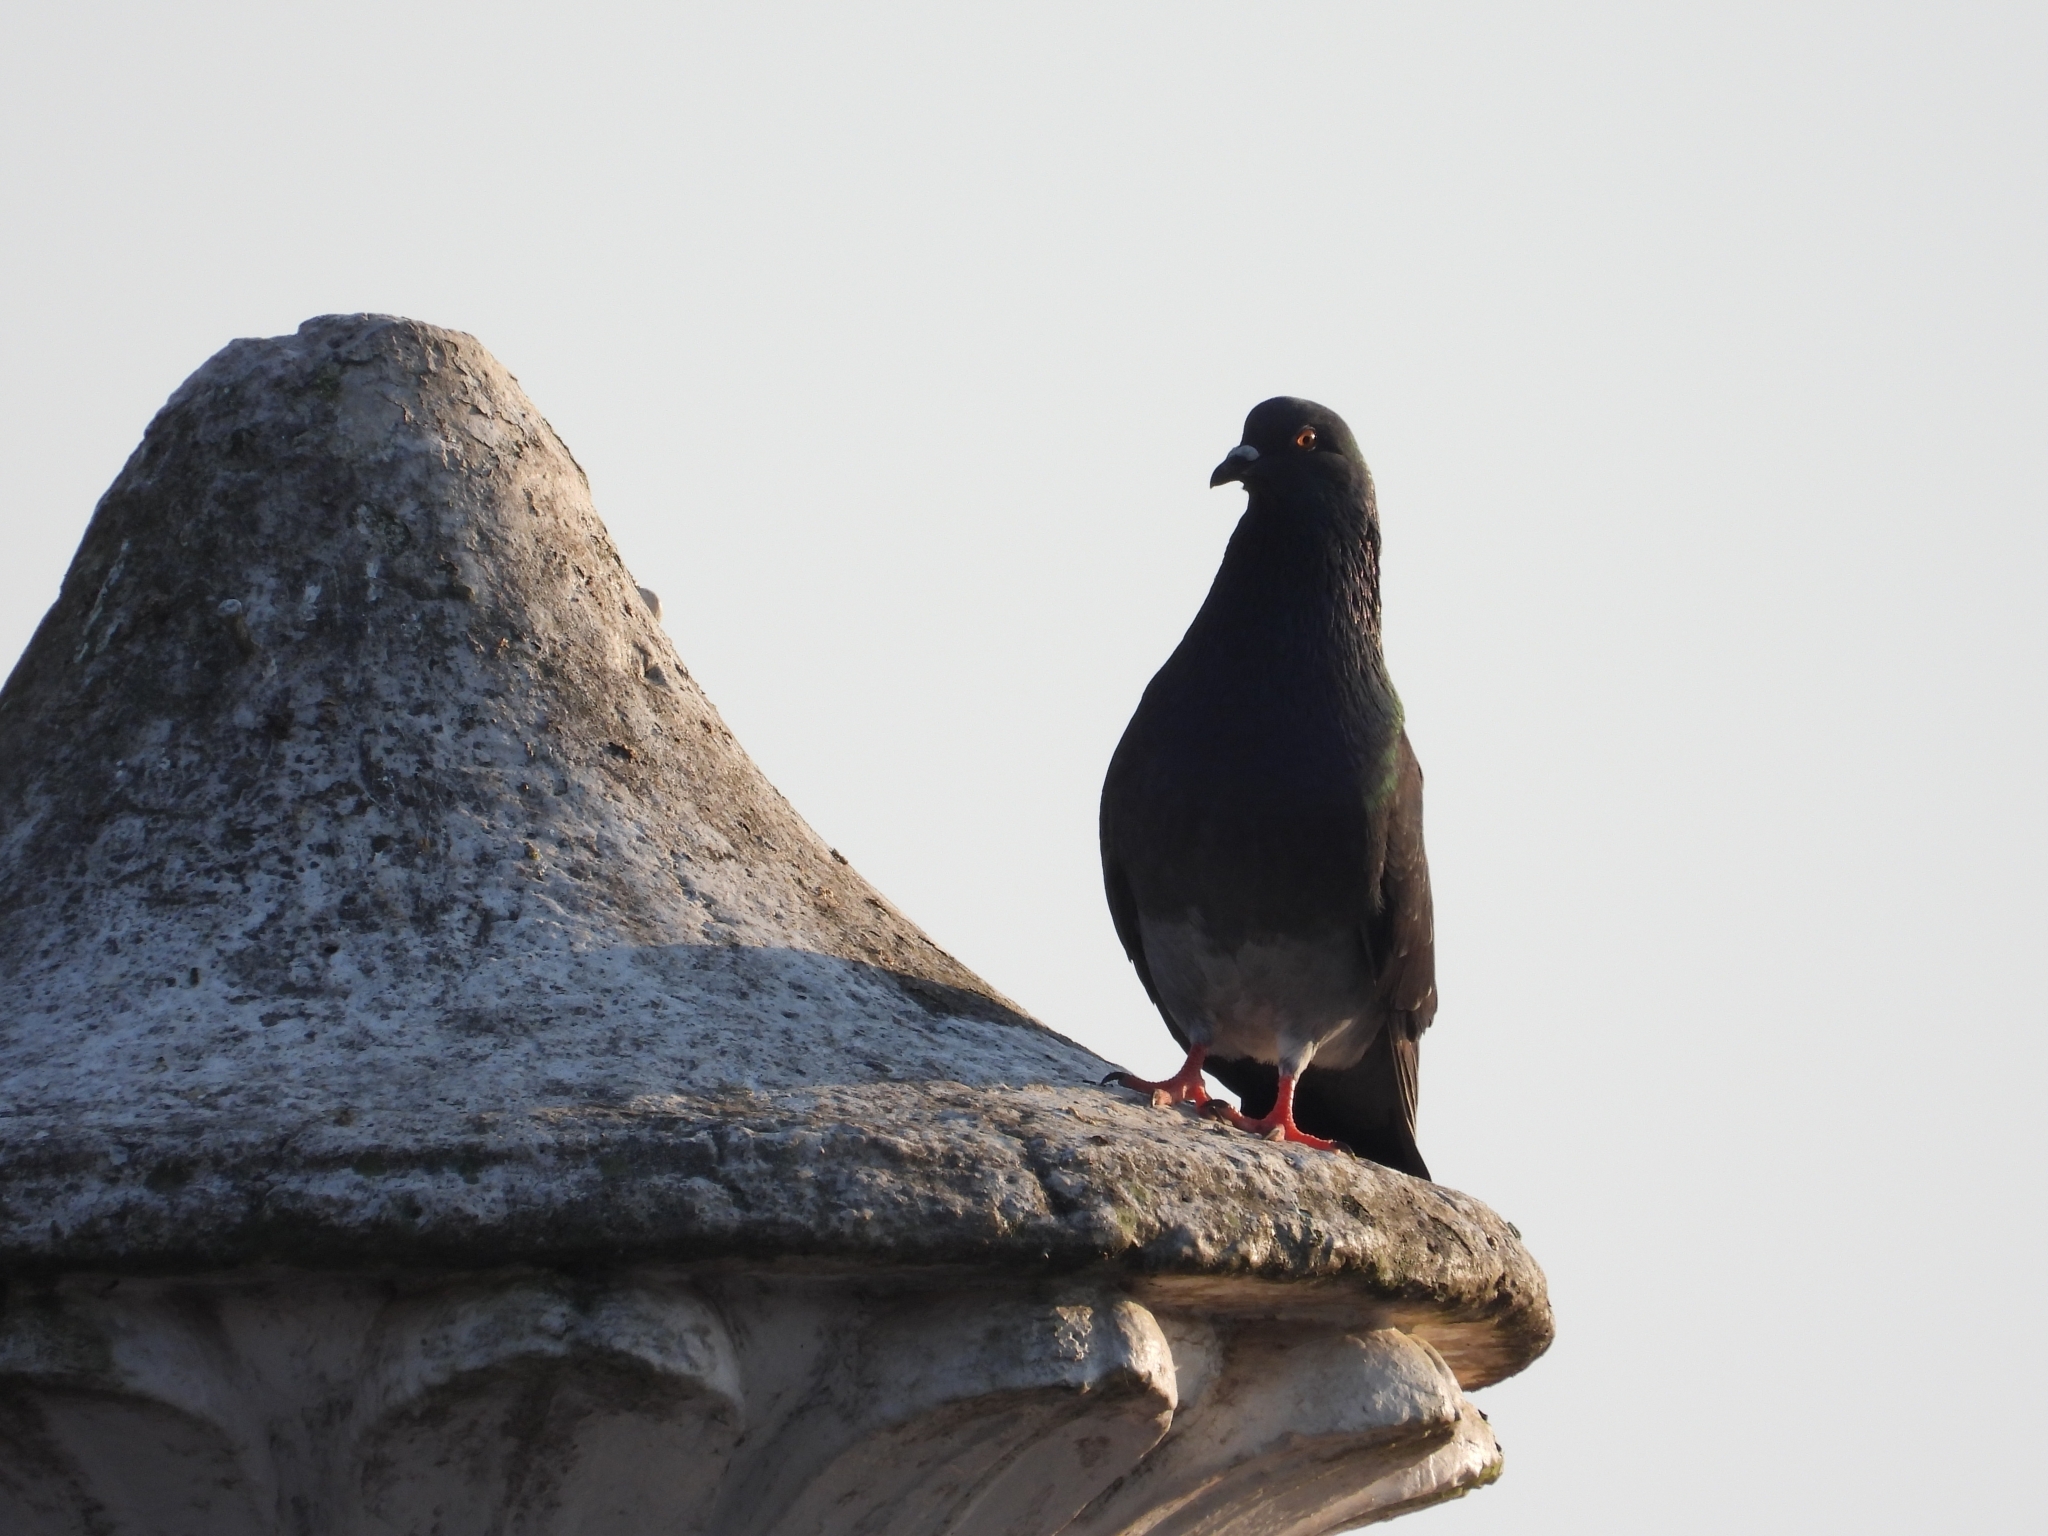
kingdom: Animalia
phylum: Chordata
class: Aves
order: Columbiformes
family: Columbidae
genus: Columba
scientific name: Columba livia
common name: Rock pigeon
